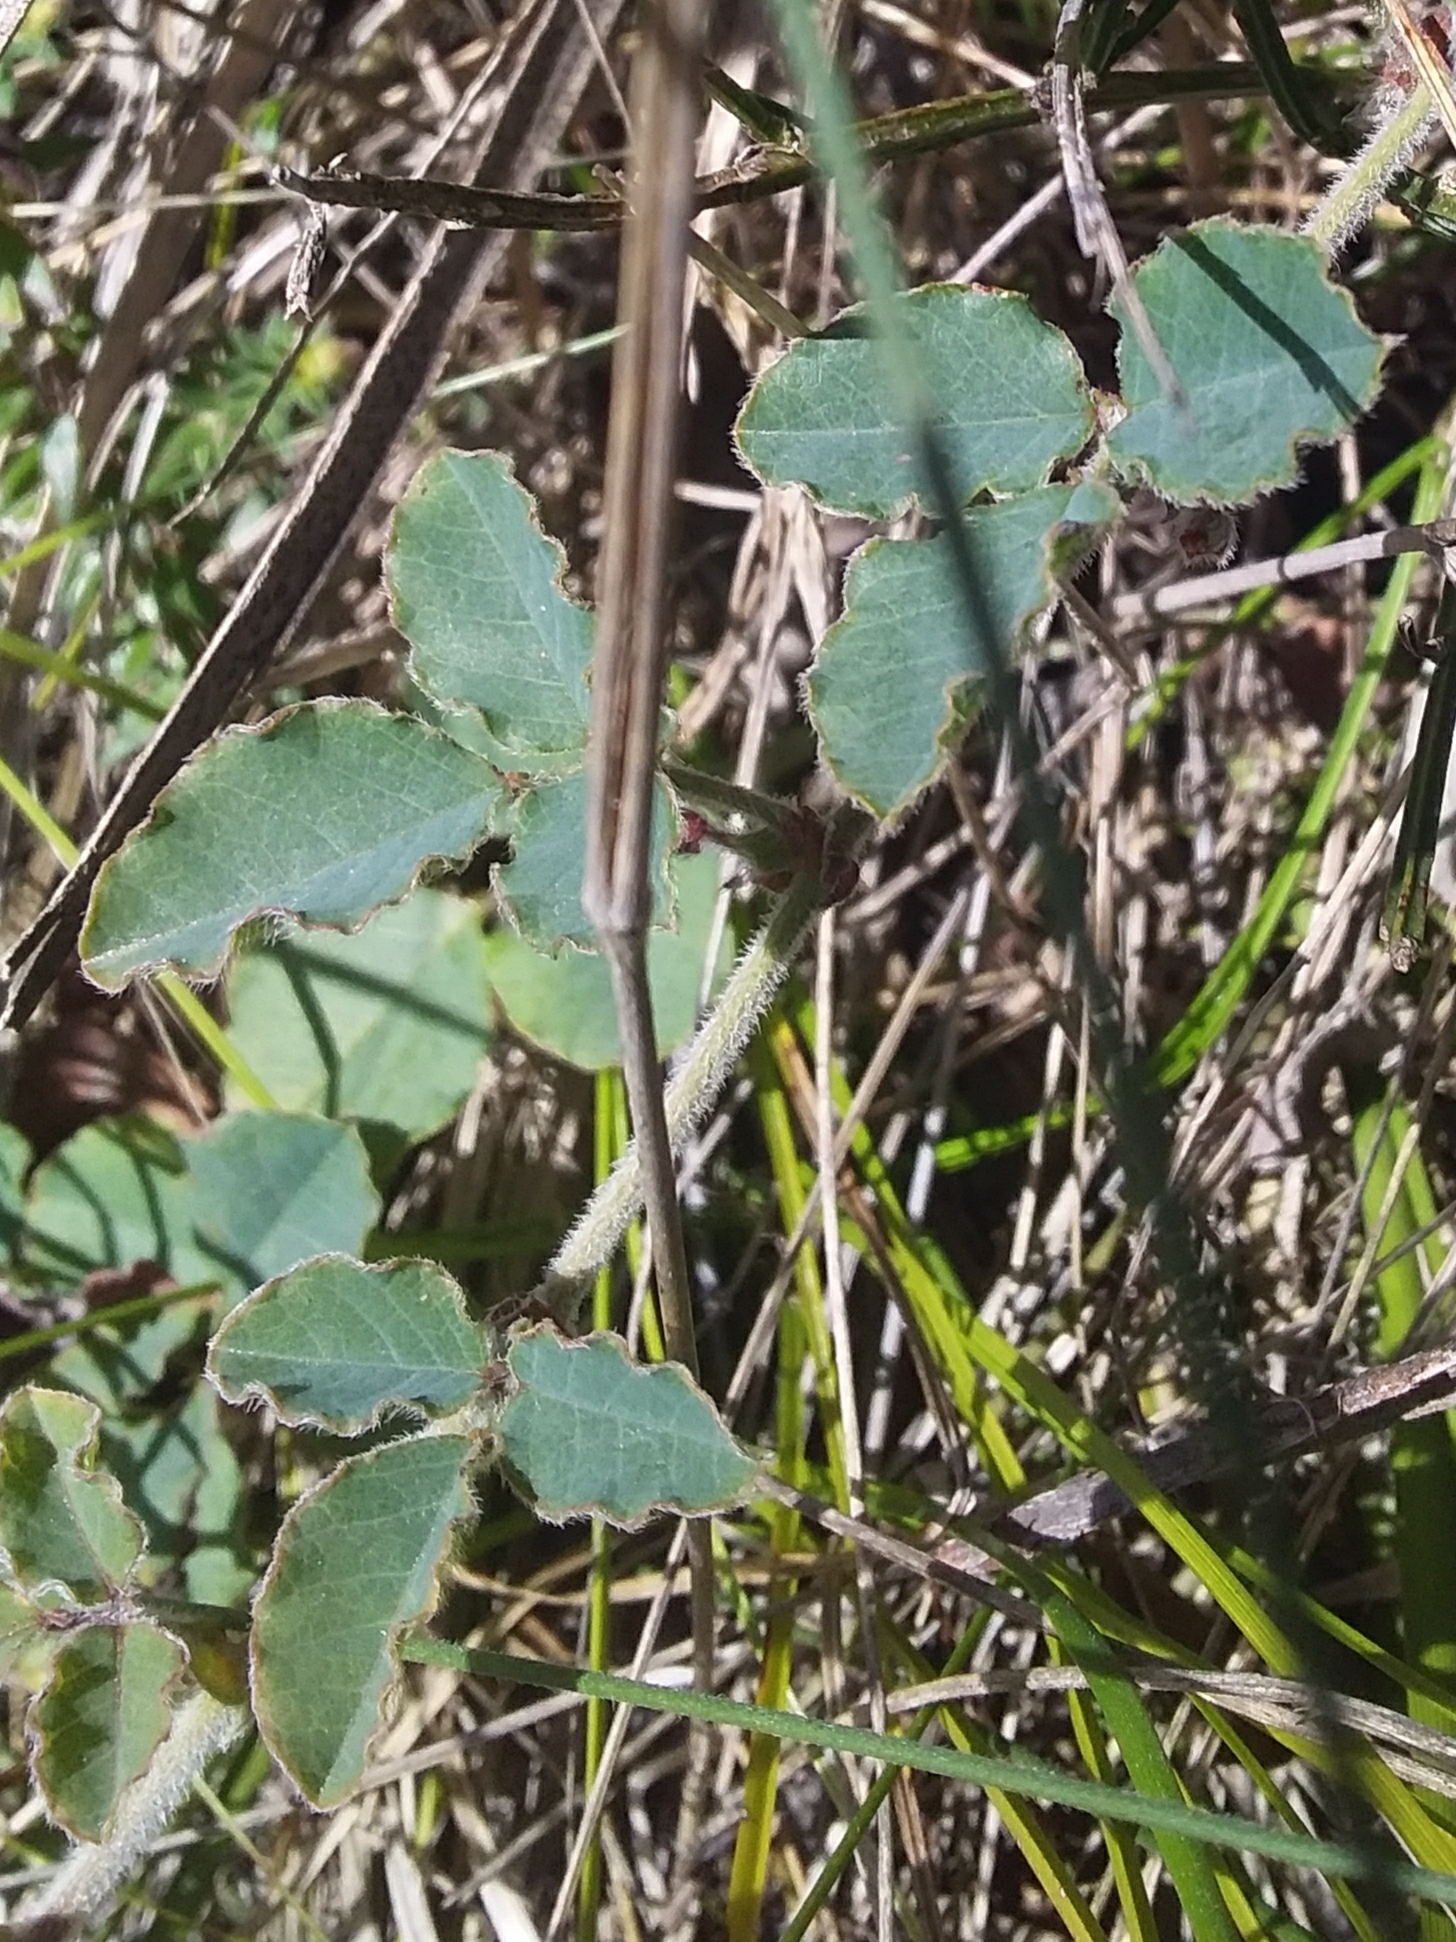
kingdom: Plantae
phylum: Tracheophyta
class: Magnoliopsida
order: Fabales
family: Fabaceae
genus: Kennedia
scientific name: Kennedia prostrata
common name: Running-postman
